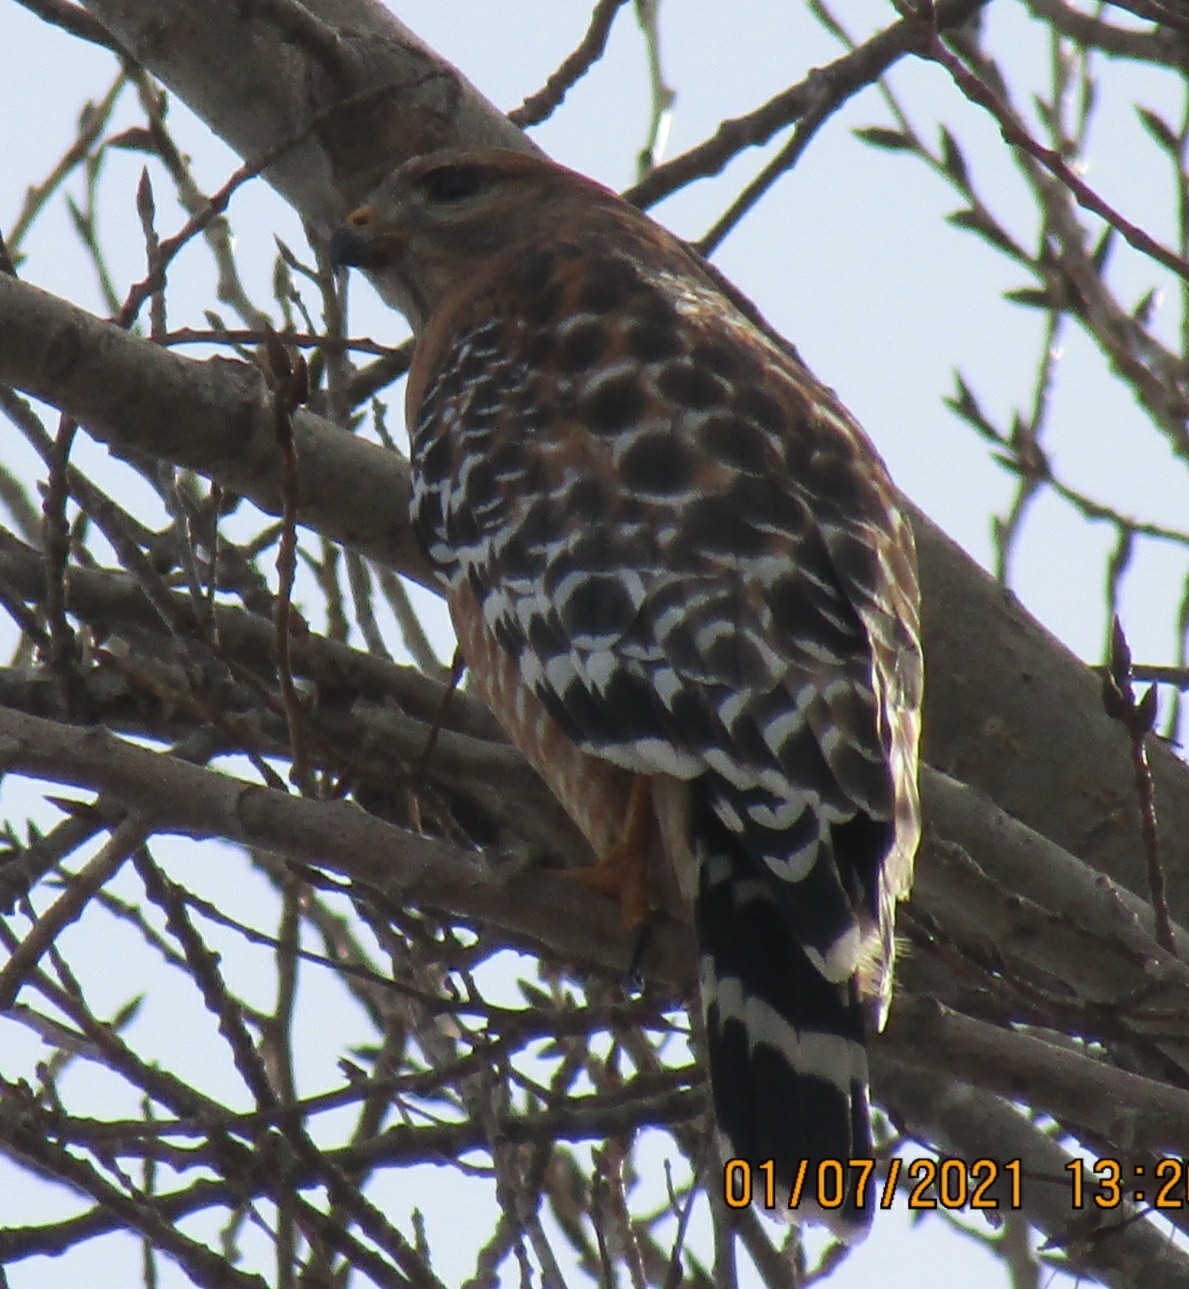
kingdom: Animalia
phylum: Chordata
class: Aves
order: Accipitriformes
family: Accipitridae
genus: Buteo
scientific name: Buteo lineatus
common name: Red-shouldered hawk
